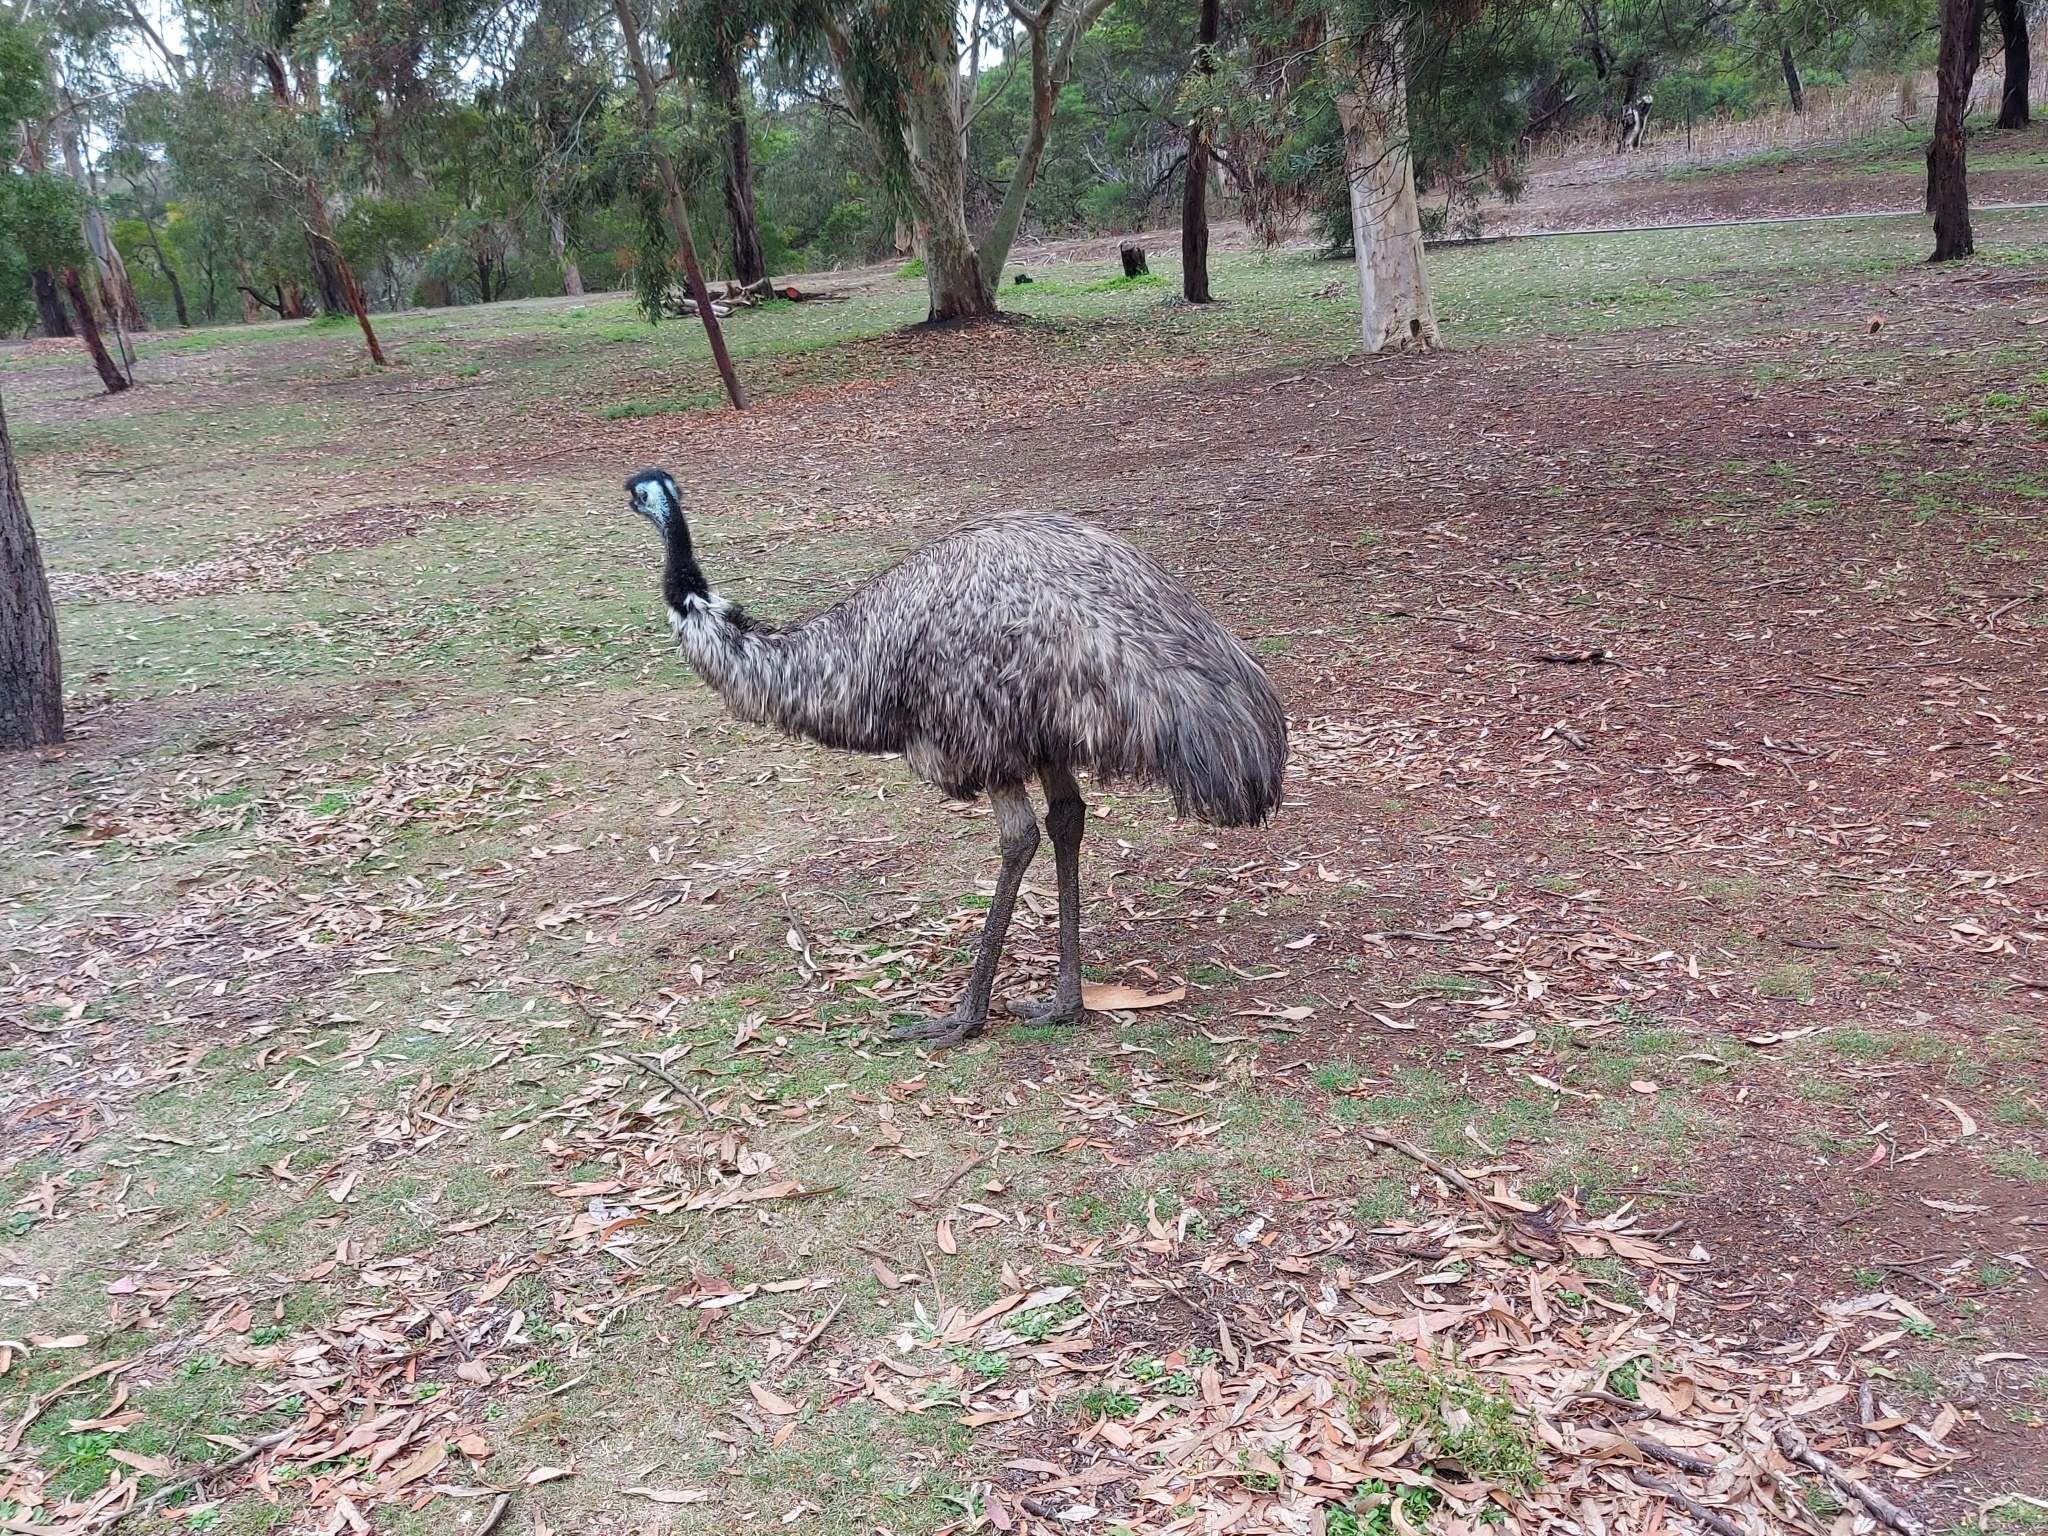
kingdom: Animalia
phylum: Chordata
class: Aves
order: Casuariiformes
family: Dromaiidae
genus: Dromaius
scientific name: Dromaius novaehollandiae
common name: Emu
